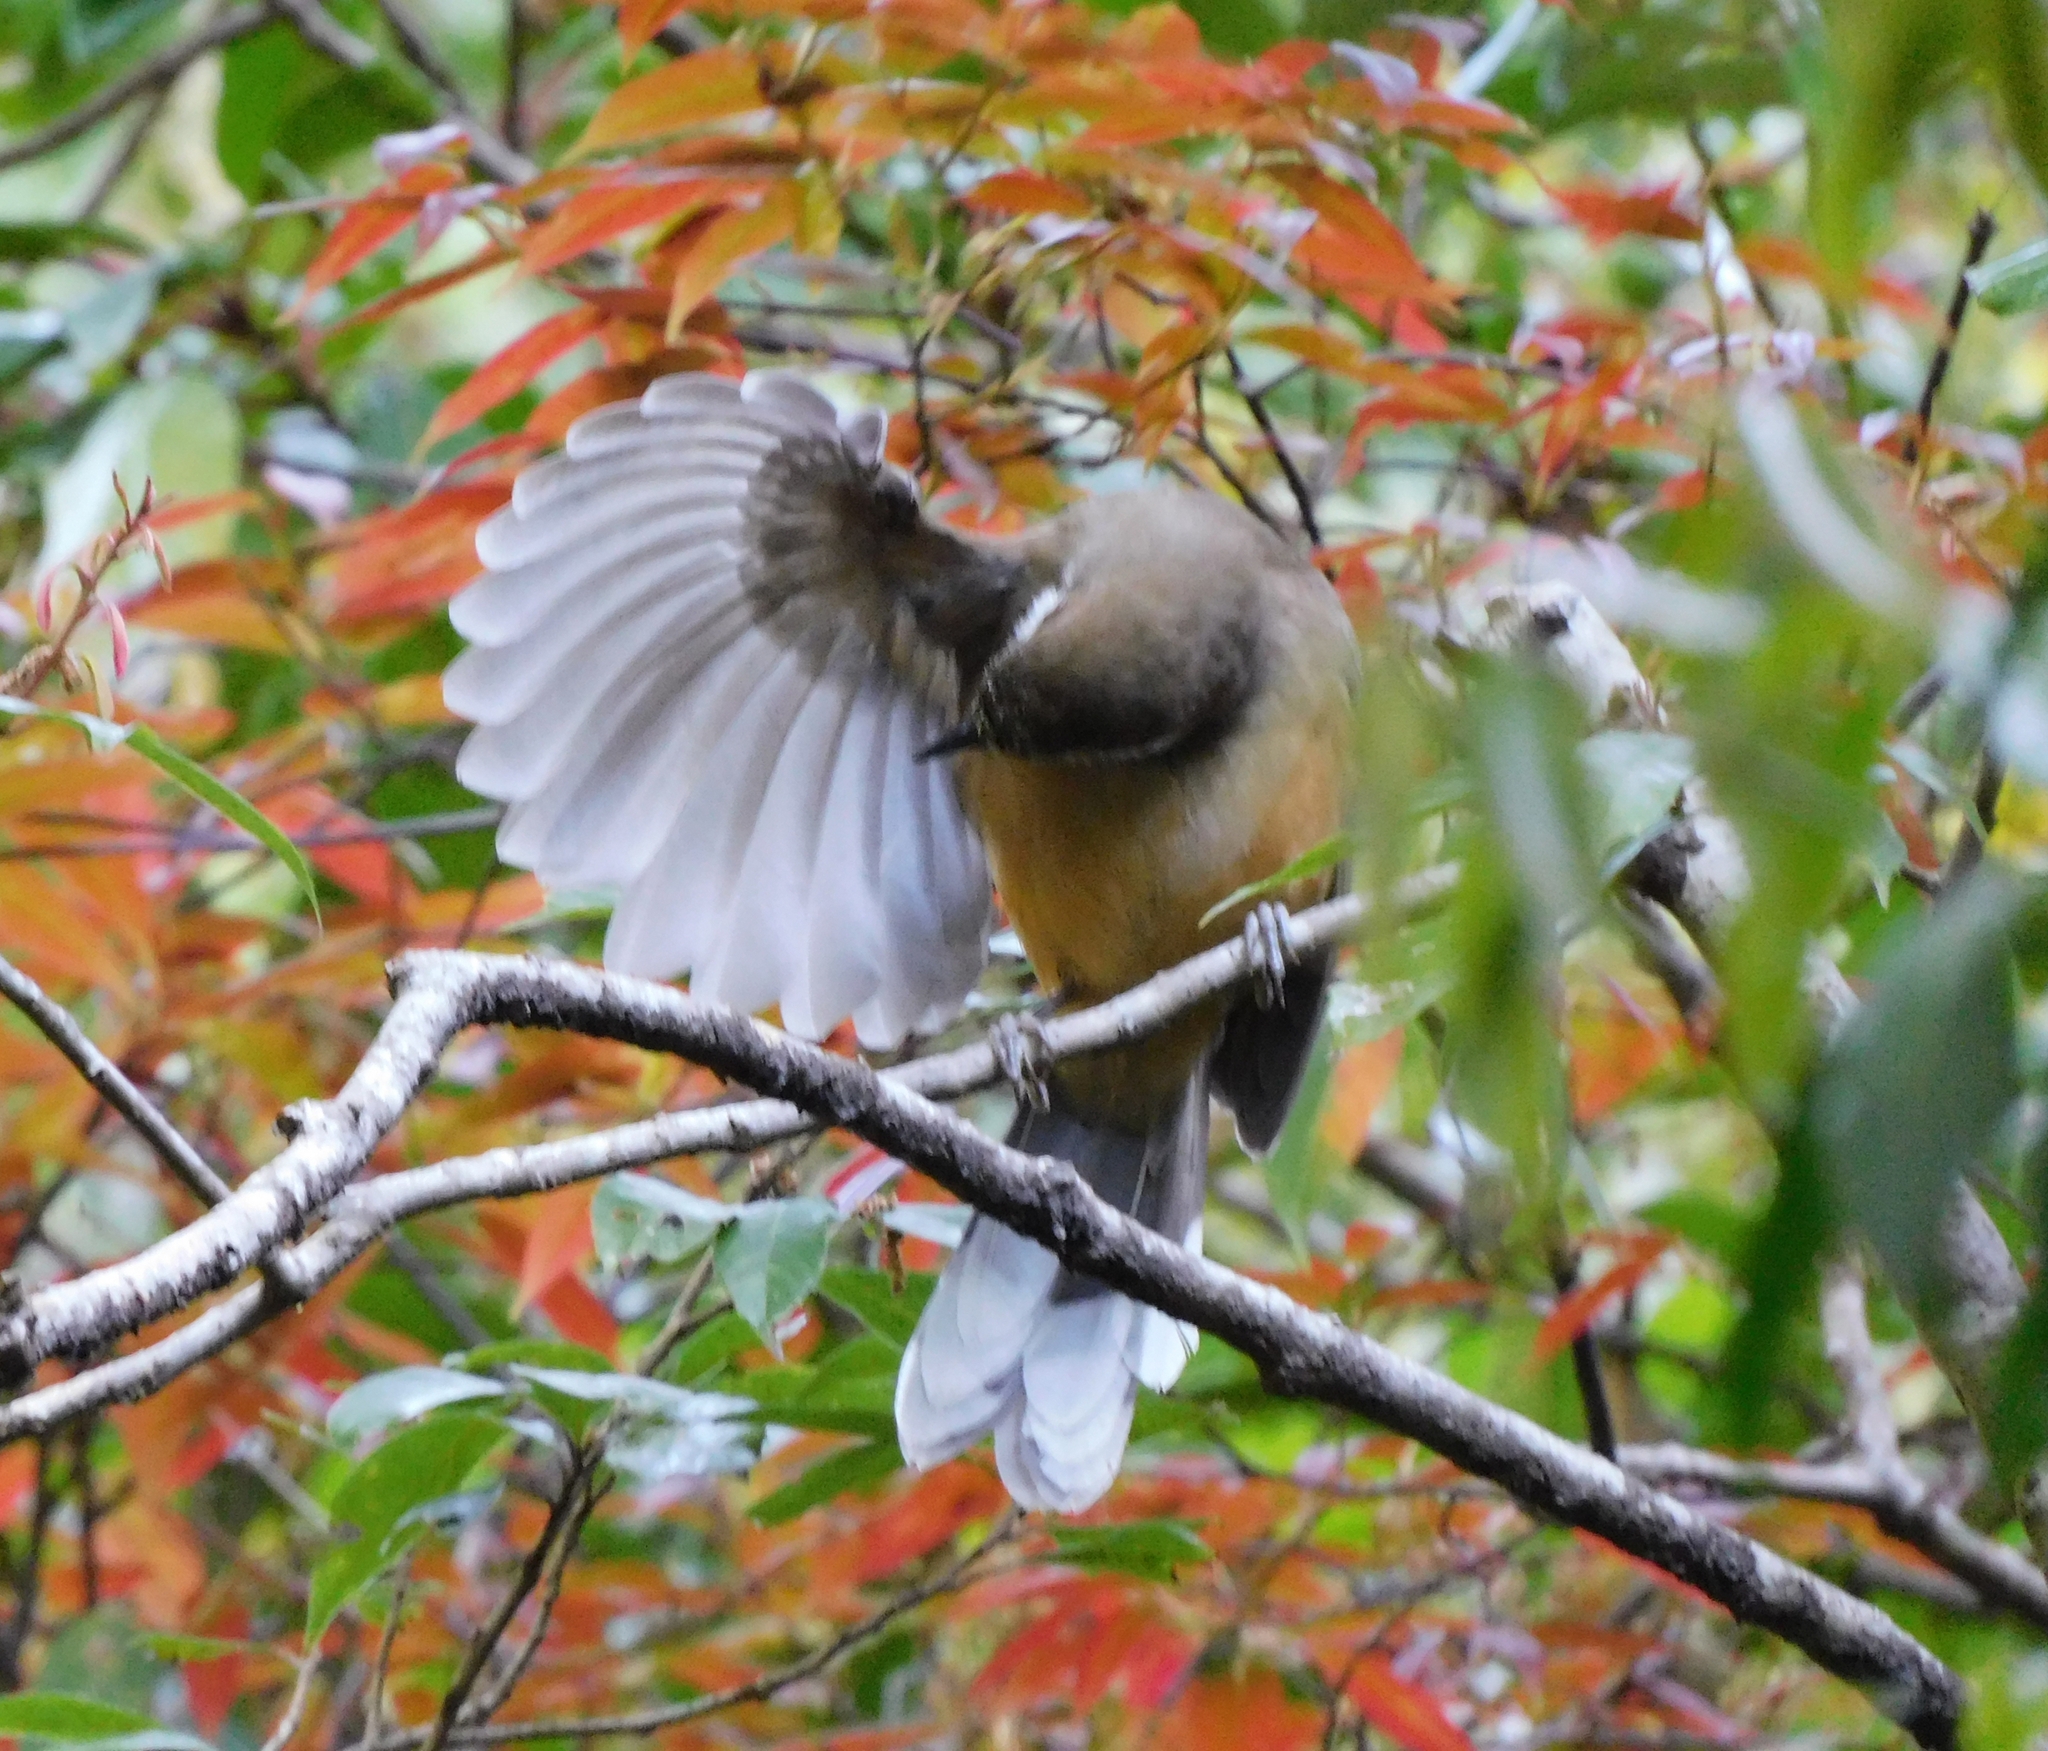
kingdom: Animalia
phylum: Chordata
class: Aves
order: Passeriformes
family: Leiothrichidae
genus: Garrulax
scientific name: Garrulax albogularis
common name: White-throated laughingthrush
